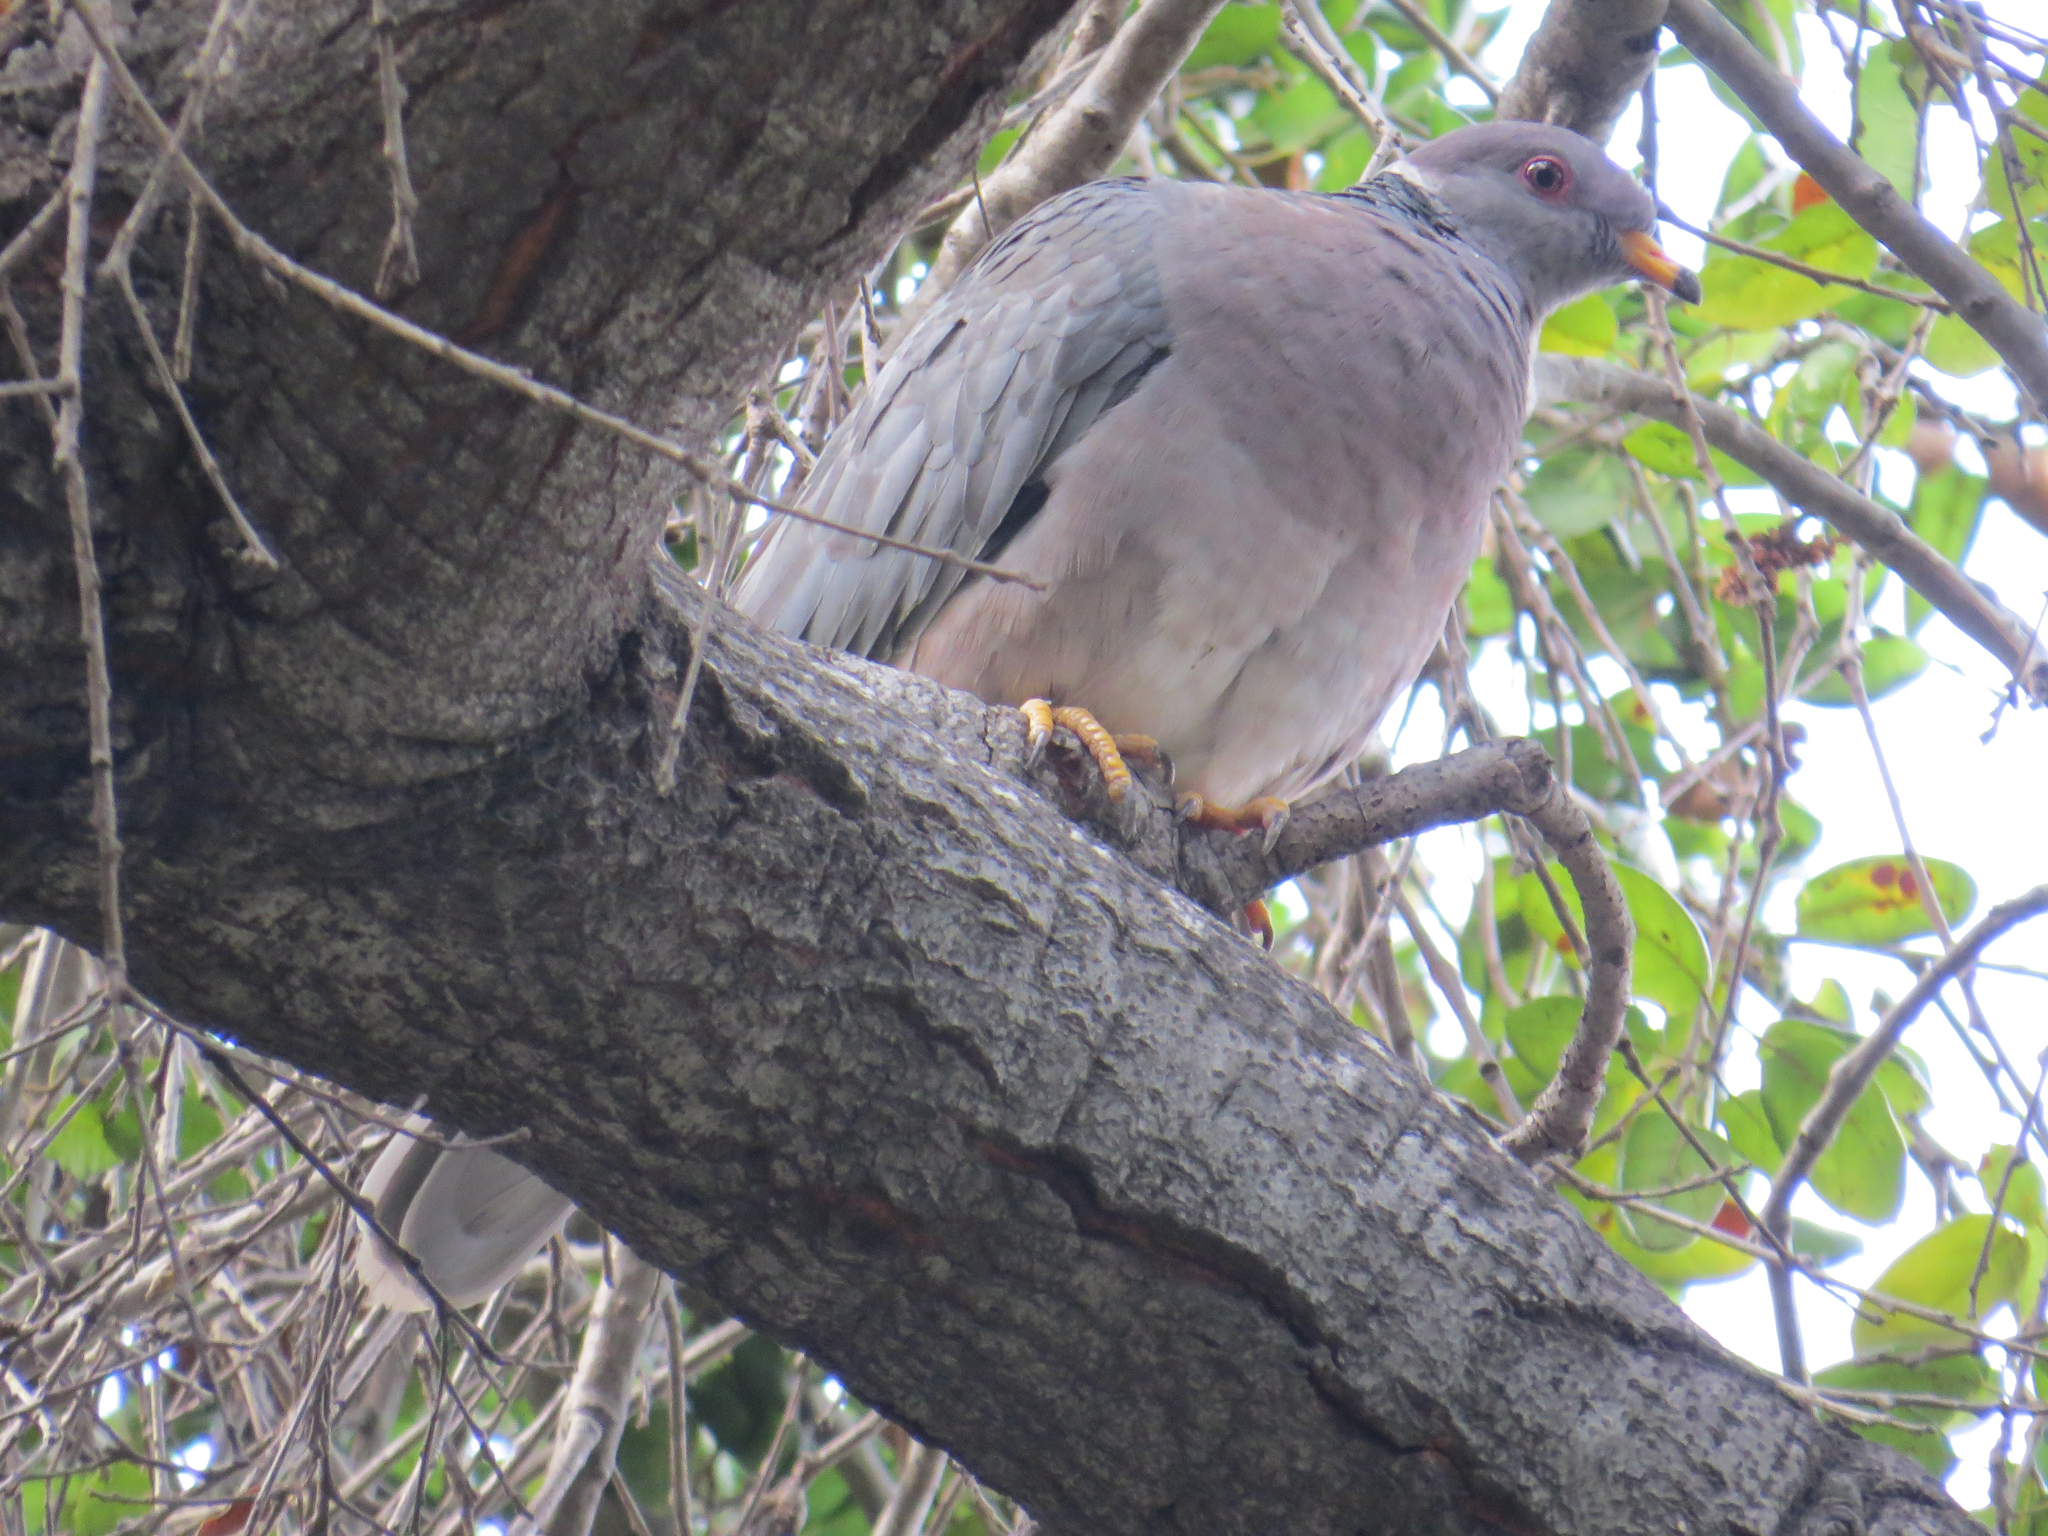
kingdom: Animalia
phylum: Chordata
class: Aves
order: Columbiformes
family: Columbidae
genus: Patagioenas
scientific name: Patagioenas fasciata
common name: Band-tailed pigeon
